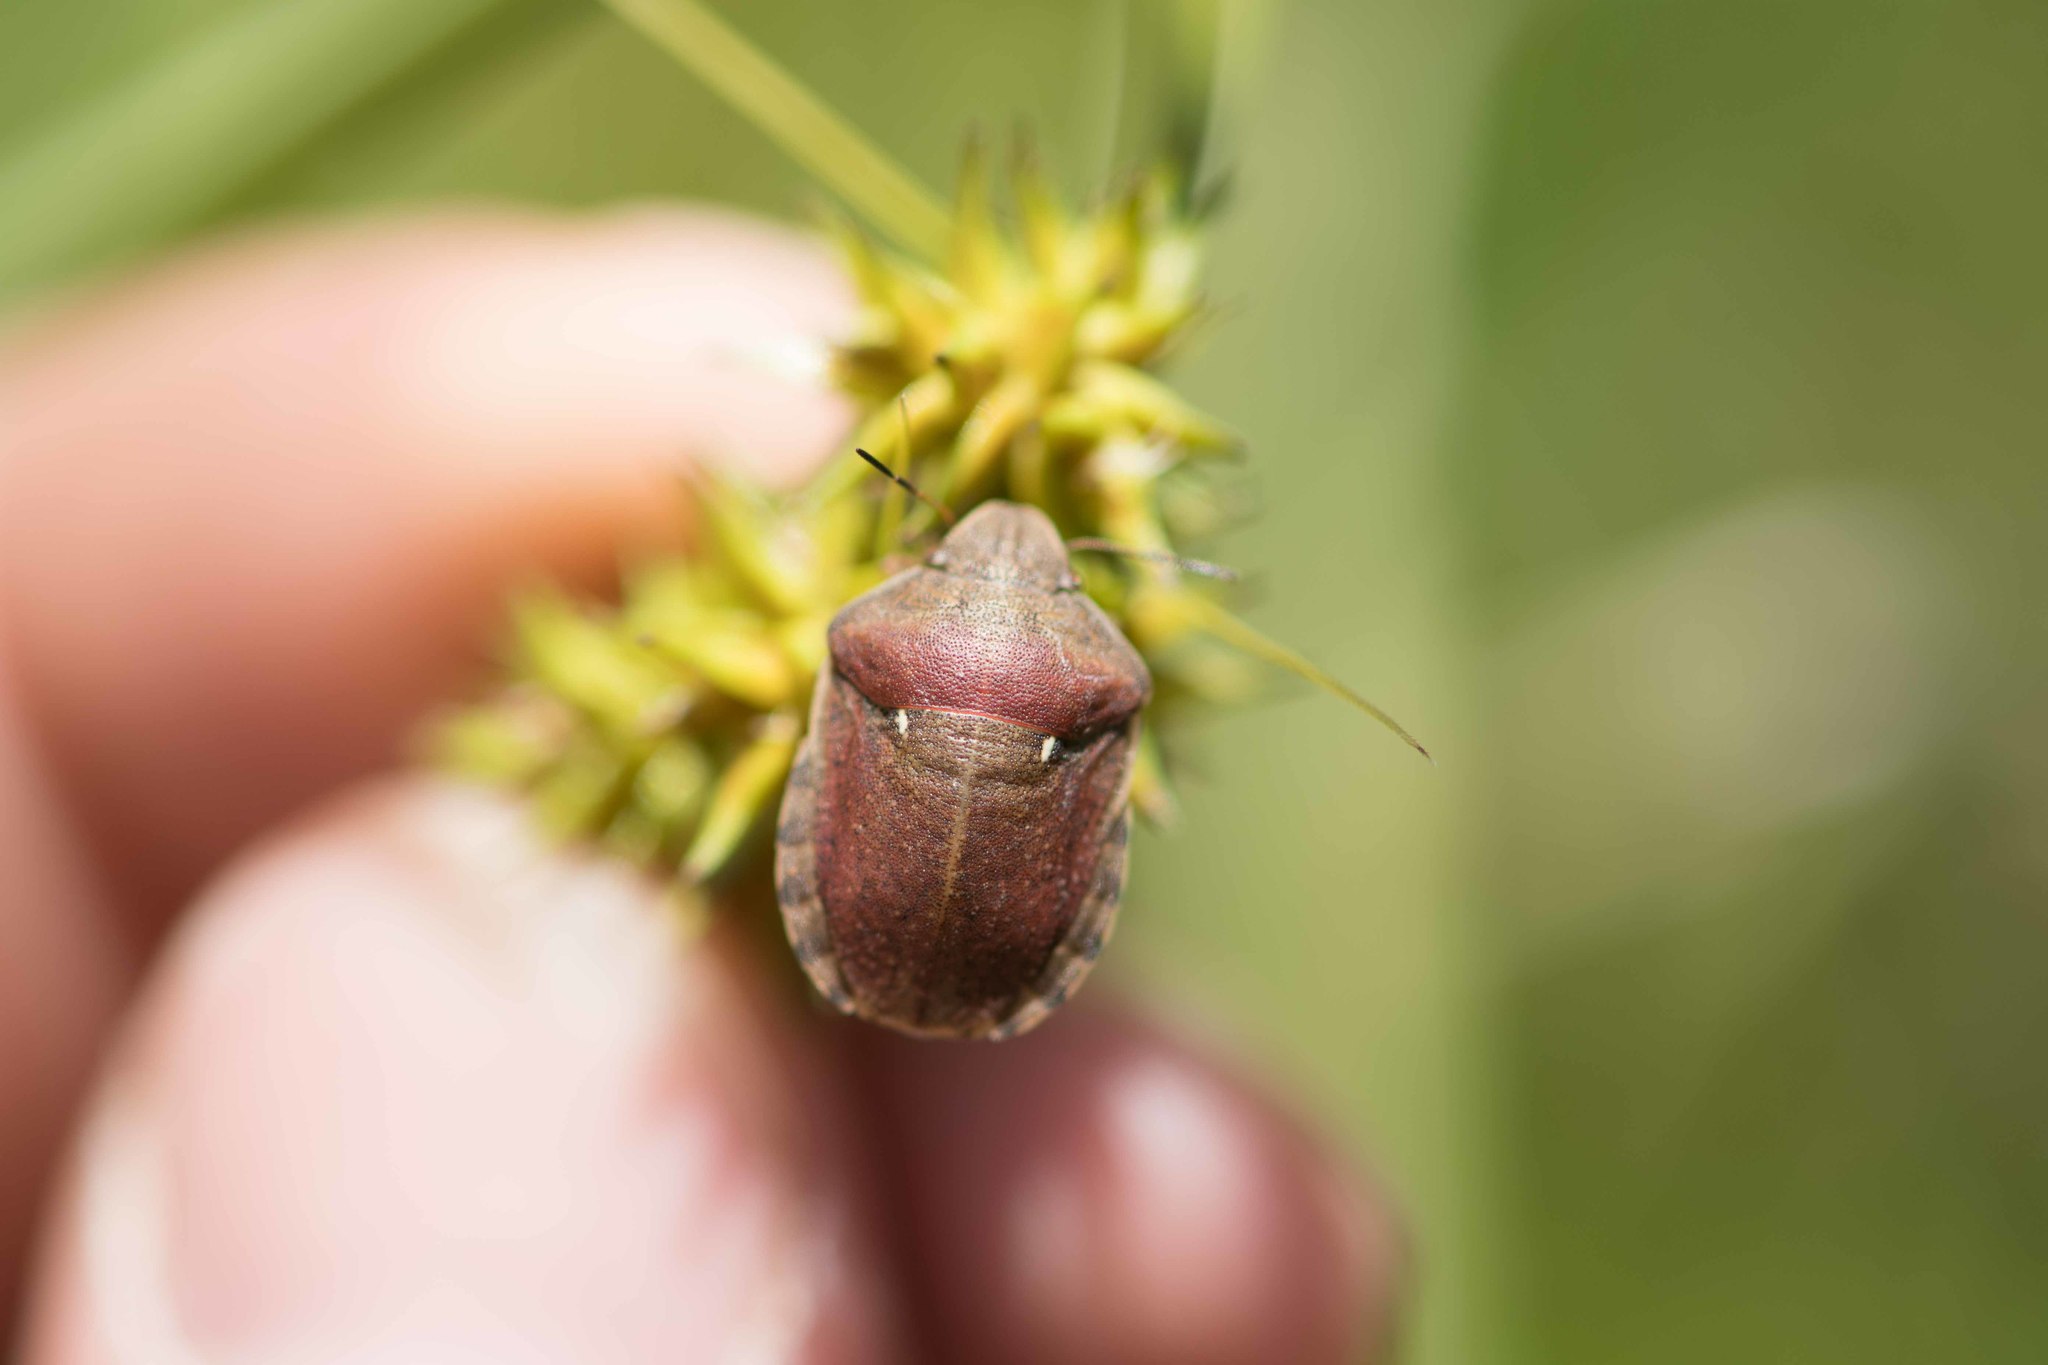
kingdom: Animalia
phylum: Arthropoda
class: Insecta
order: Hemiptera
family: Scutelleridae
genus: Eurygaster
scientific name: Eurygaster maura
